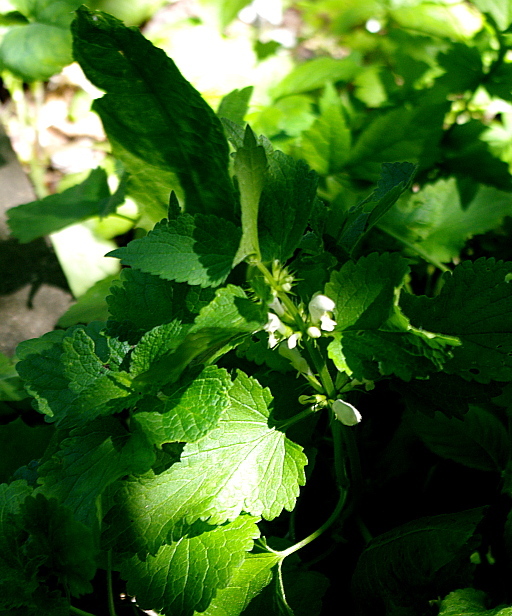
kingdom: Plantae
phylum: Tracheophyta
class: Magnoliopsida
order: Lamiales
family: Lamiaceae
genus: Lamium
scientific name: Lamium album
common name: White dead-nettle
